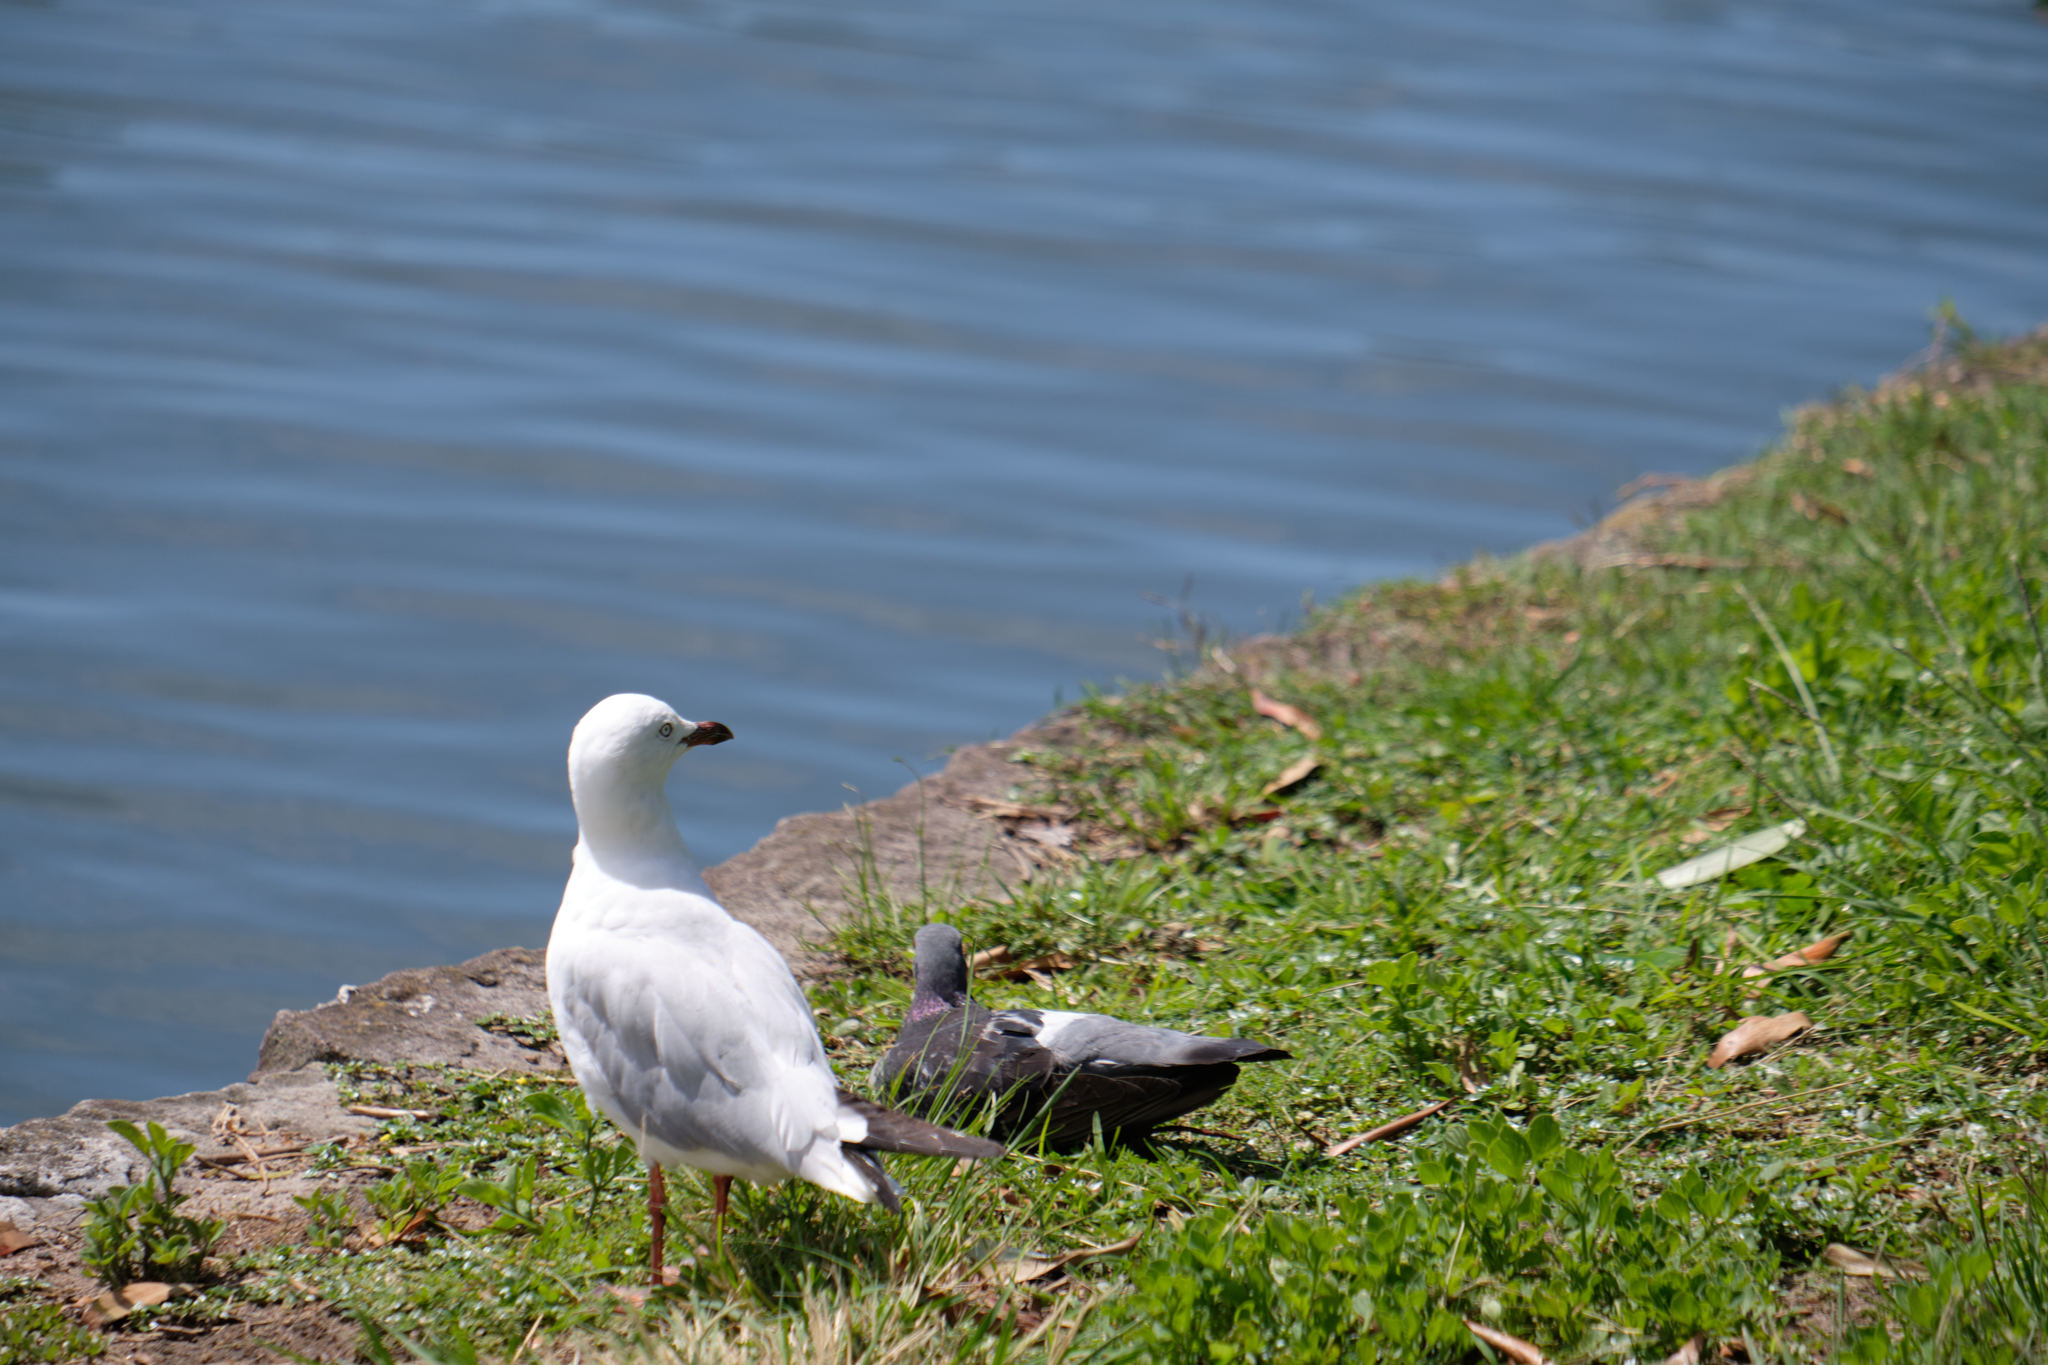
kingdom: Animalia
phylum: Chordata
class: Aves
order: Charadriiformes
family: Laridae
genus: Chroicocephalus
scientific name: Chroicocephalus novaehollandiae
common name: Silver gull
